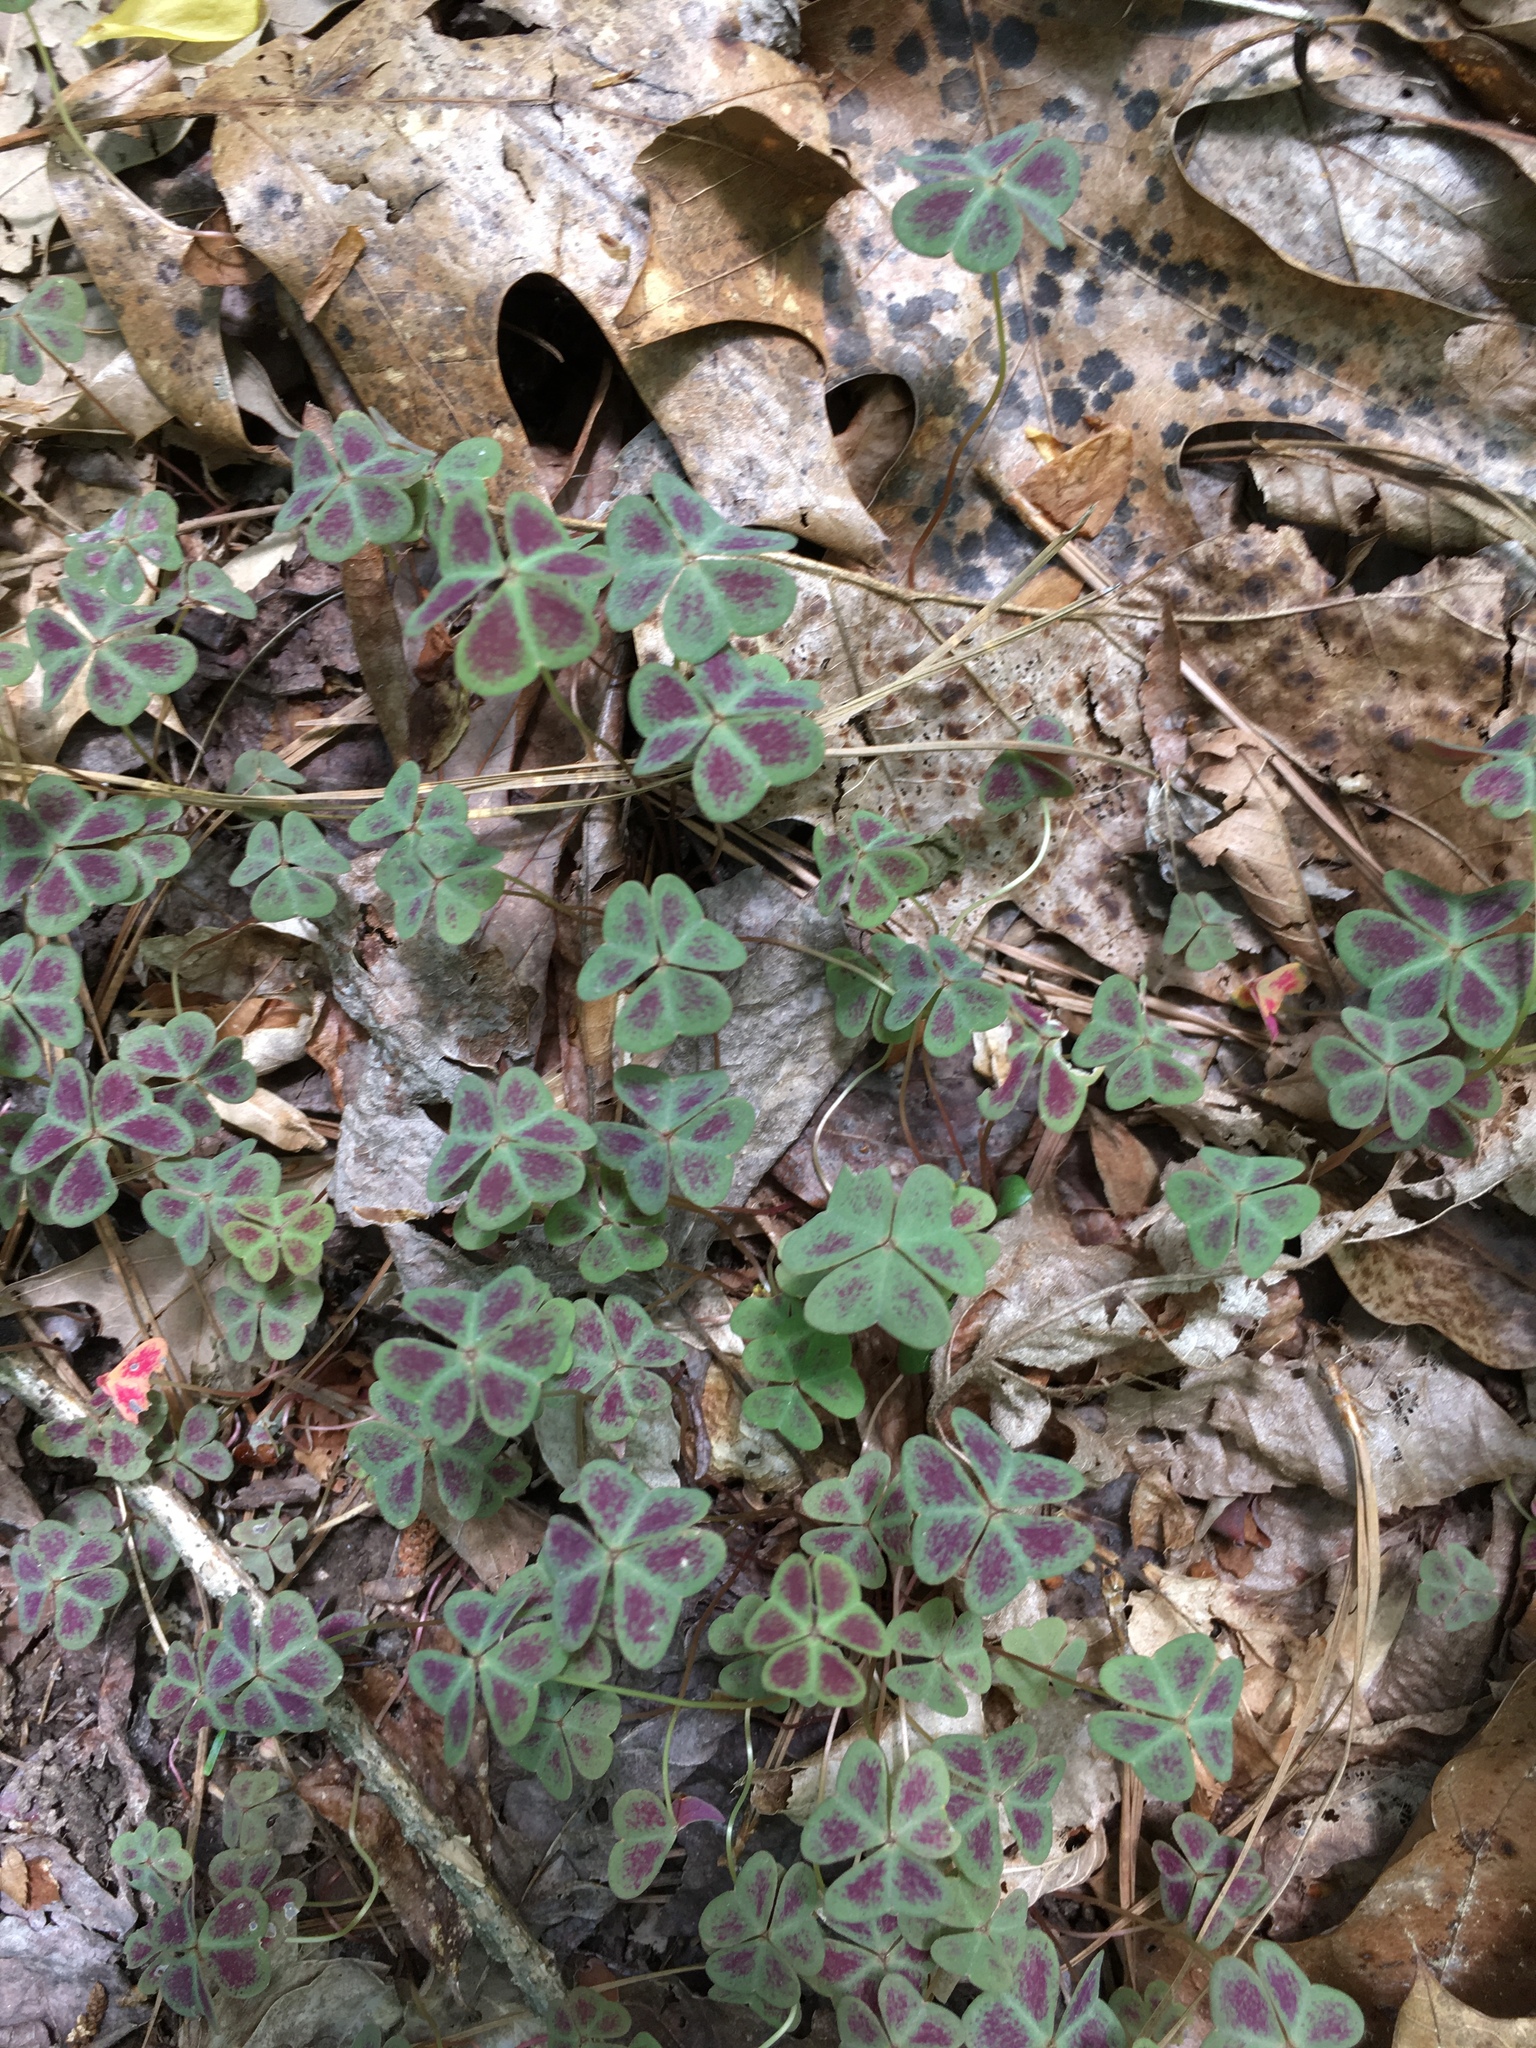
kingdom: Plantae
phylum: Tracheophyta
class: Magnoliopsida
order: Oxalidales
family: Oxalidaceae
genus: Oxalis
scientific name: Oxalis violacea
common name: Violet wood-sorrel
